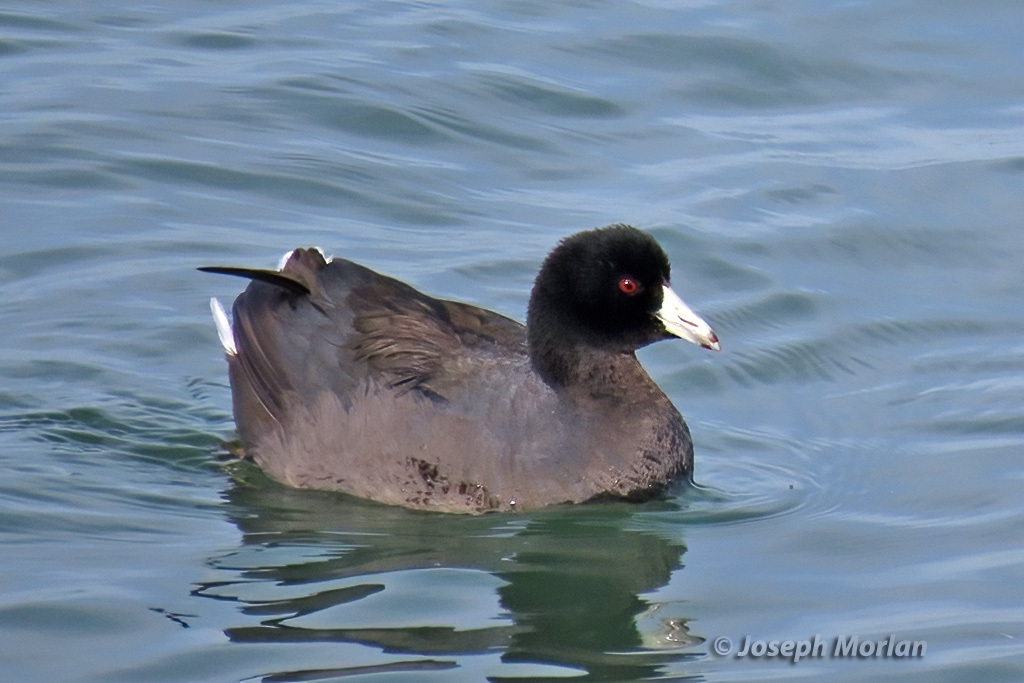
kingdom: Animalia
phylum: Chordata
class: Aves
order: Gruiformes
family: Rallidae
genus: Fulica
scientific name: Fulica americana
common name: American coot
